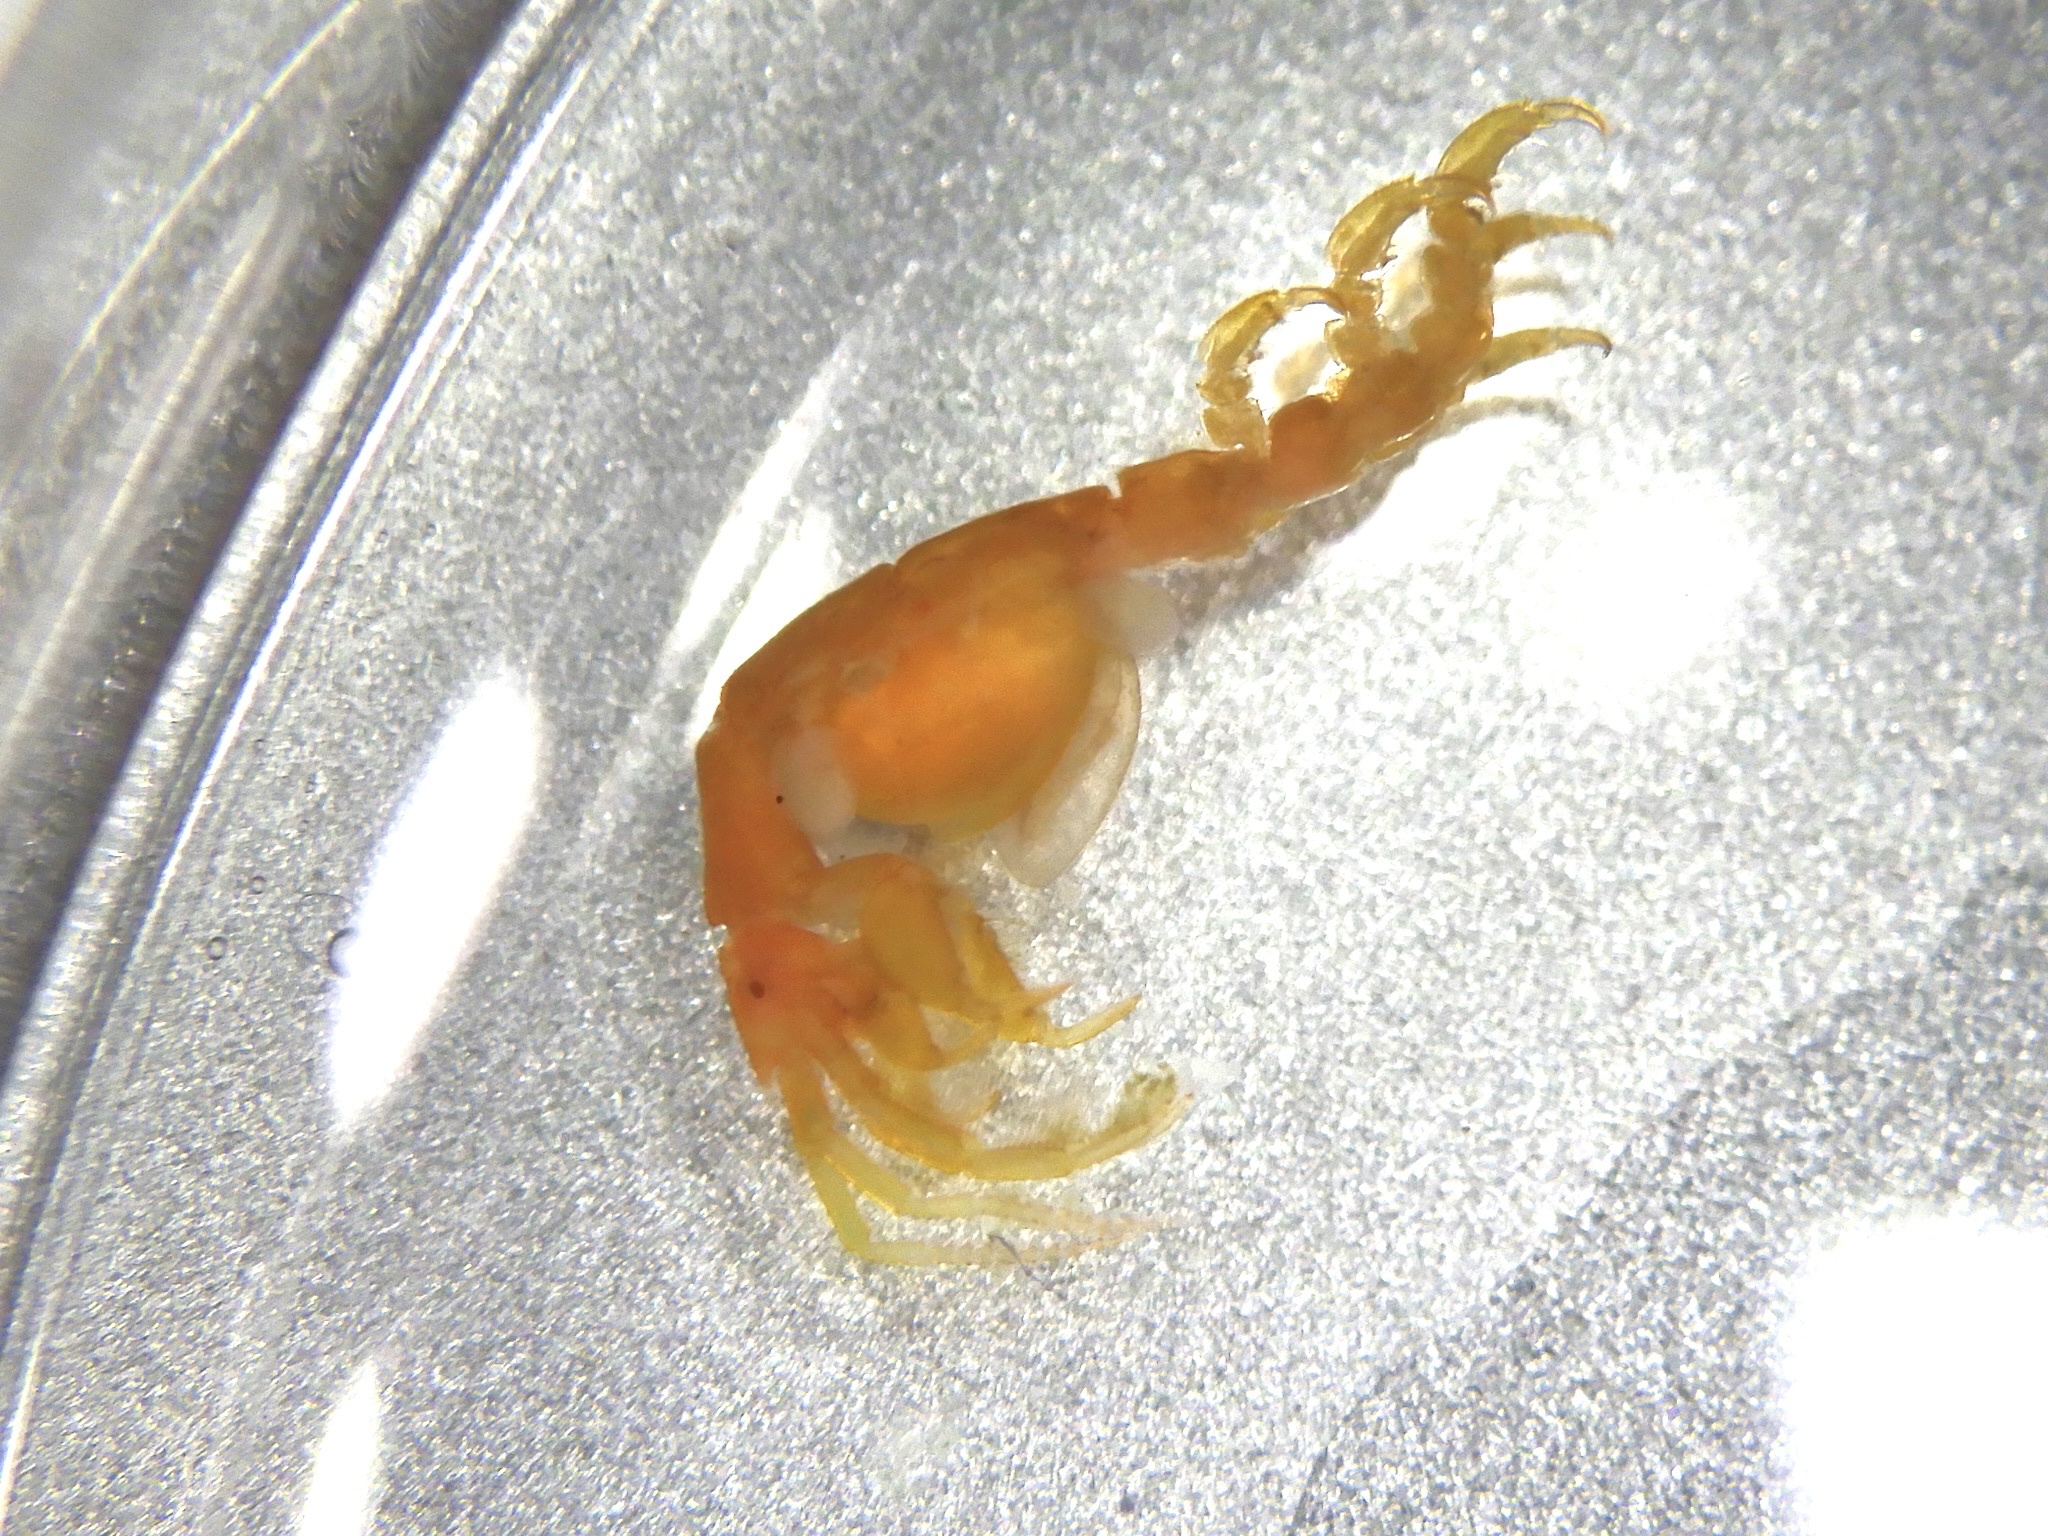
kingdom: Animalia
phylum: Arthropoda
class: Malacostraca
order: Amphipoda
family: Caprellidae
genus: Caprella
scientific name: Caprella penantis
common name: Skeleton shrimp
